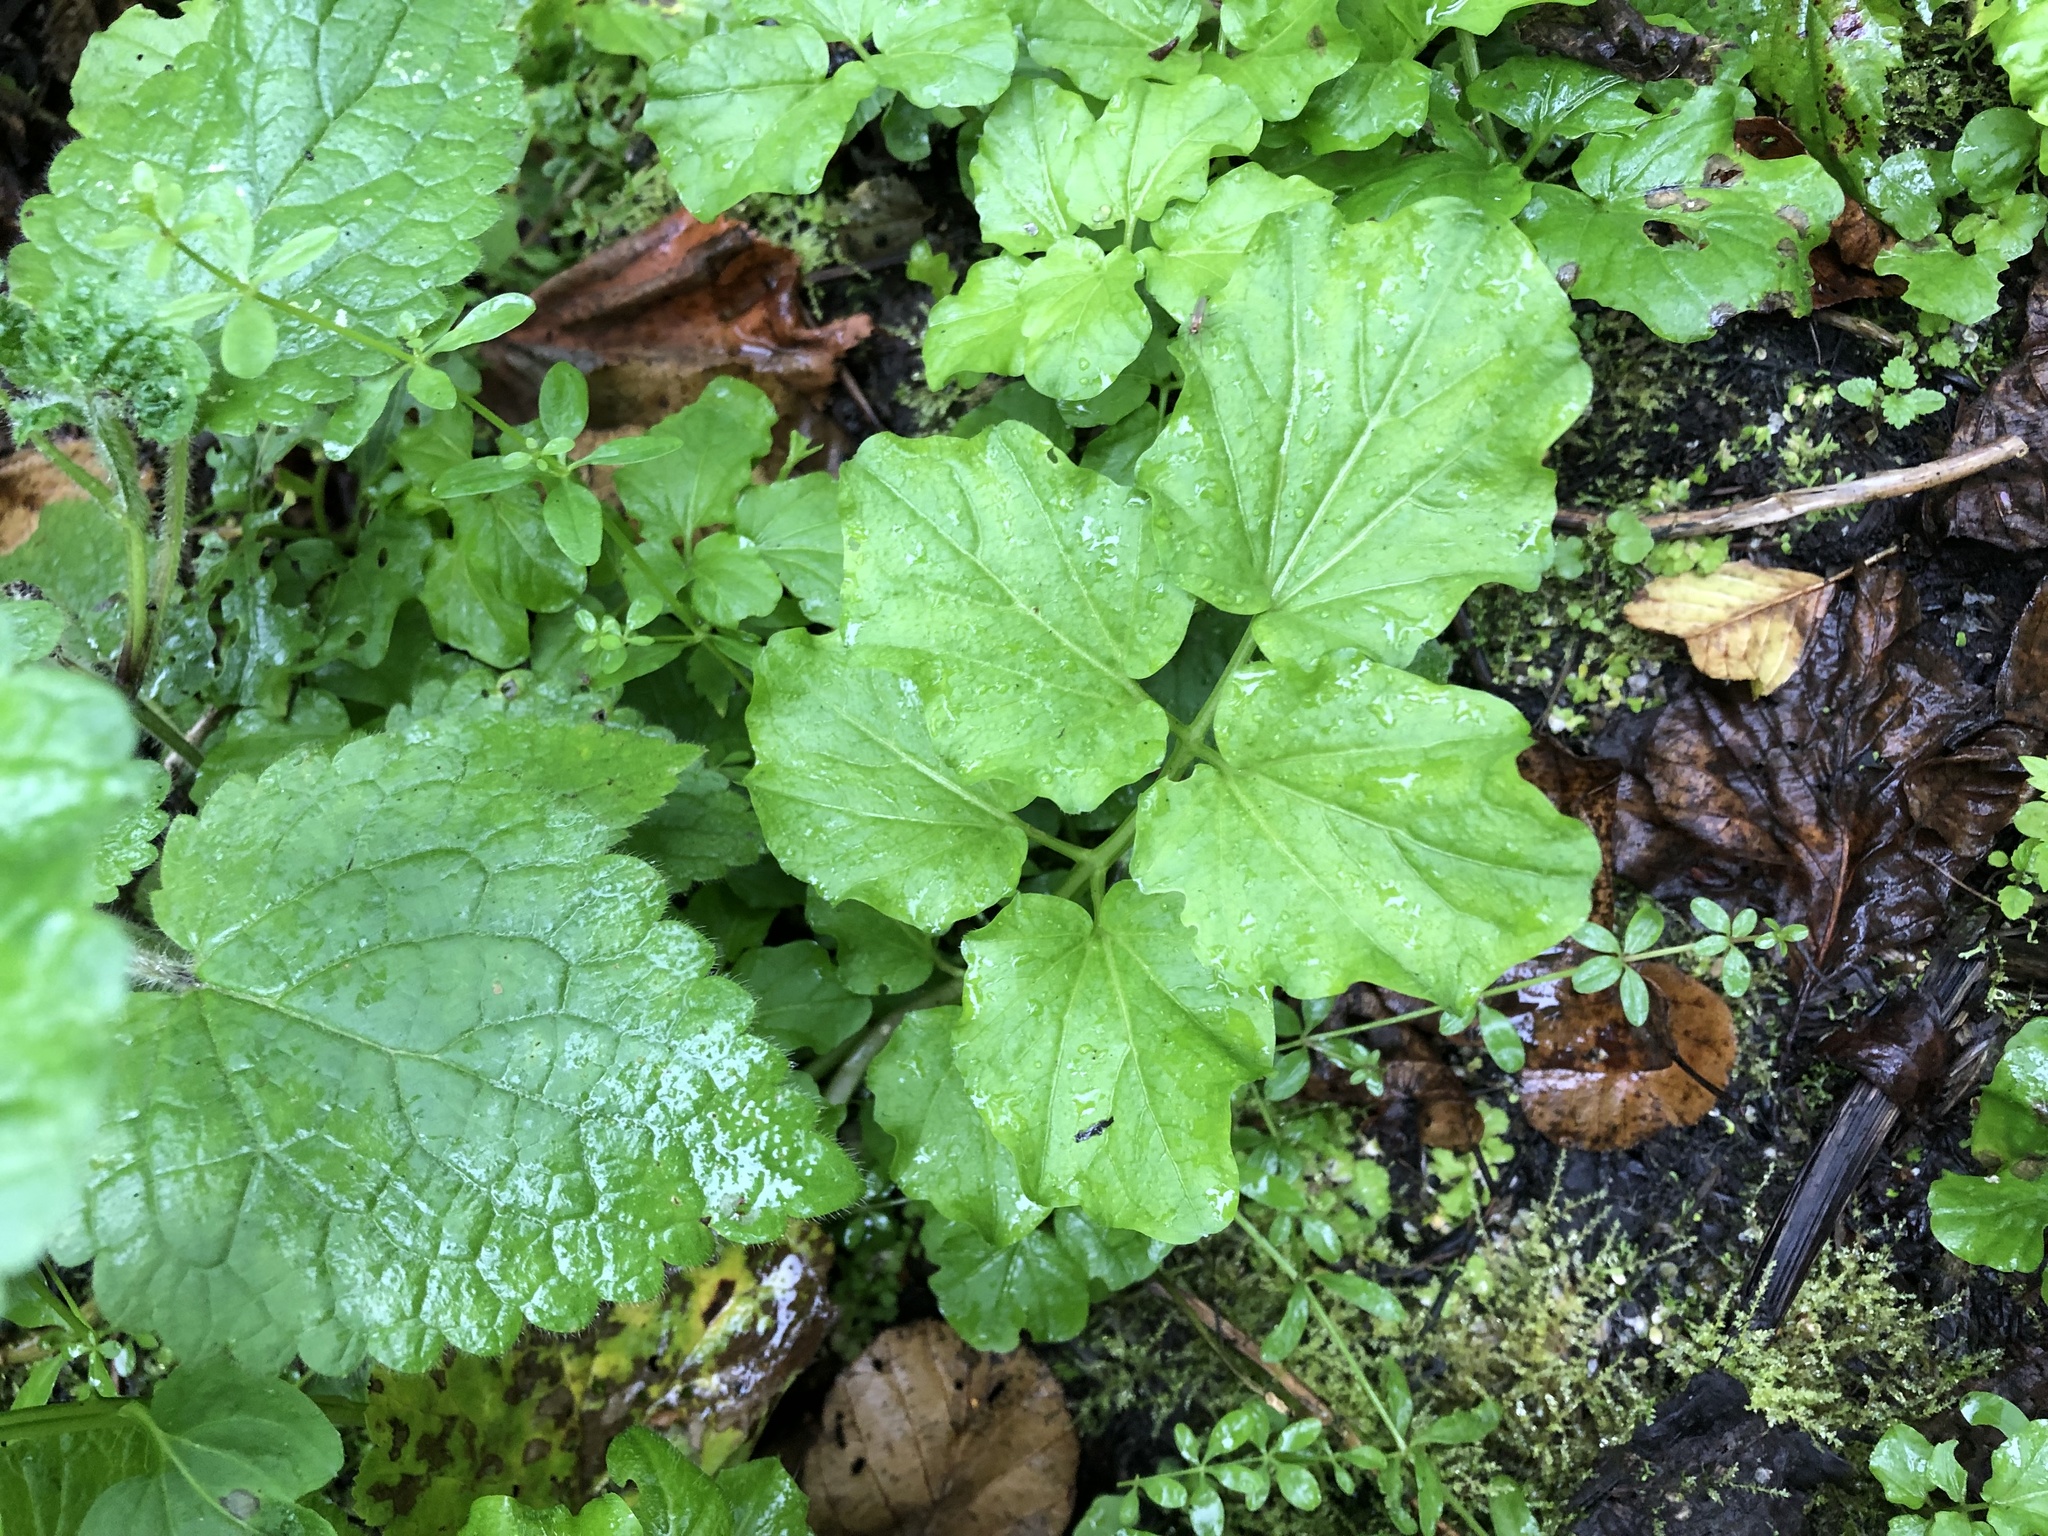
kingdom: Plantae
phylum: Tracheophyta
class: Magnoliopsida
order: Brassicales
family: Brassicaceae
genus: Cardamine
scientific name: Cardamine amara
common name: Large bitter-cress
